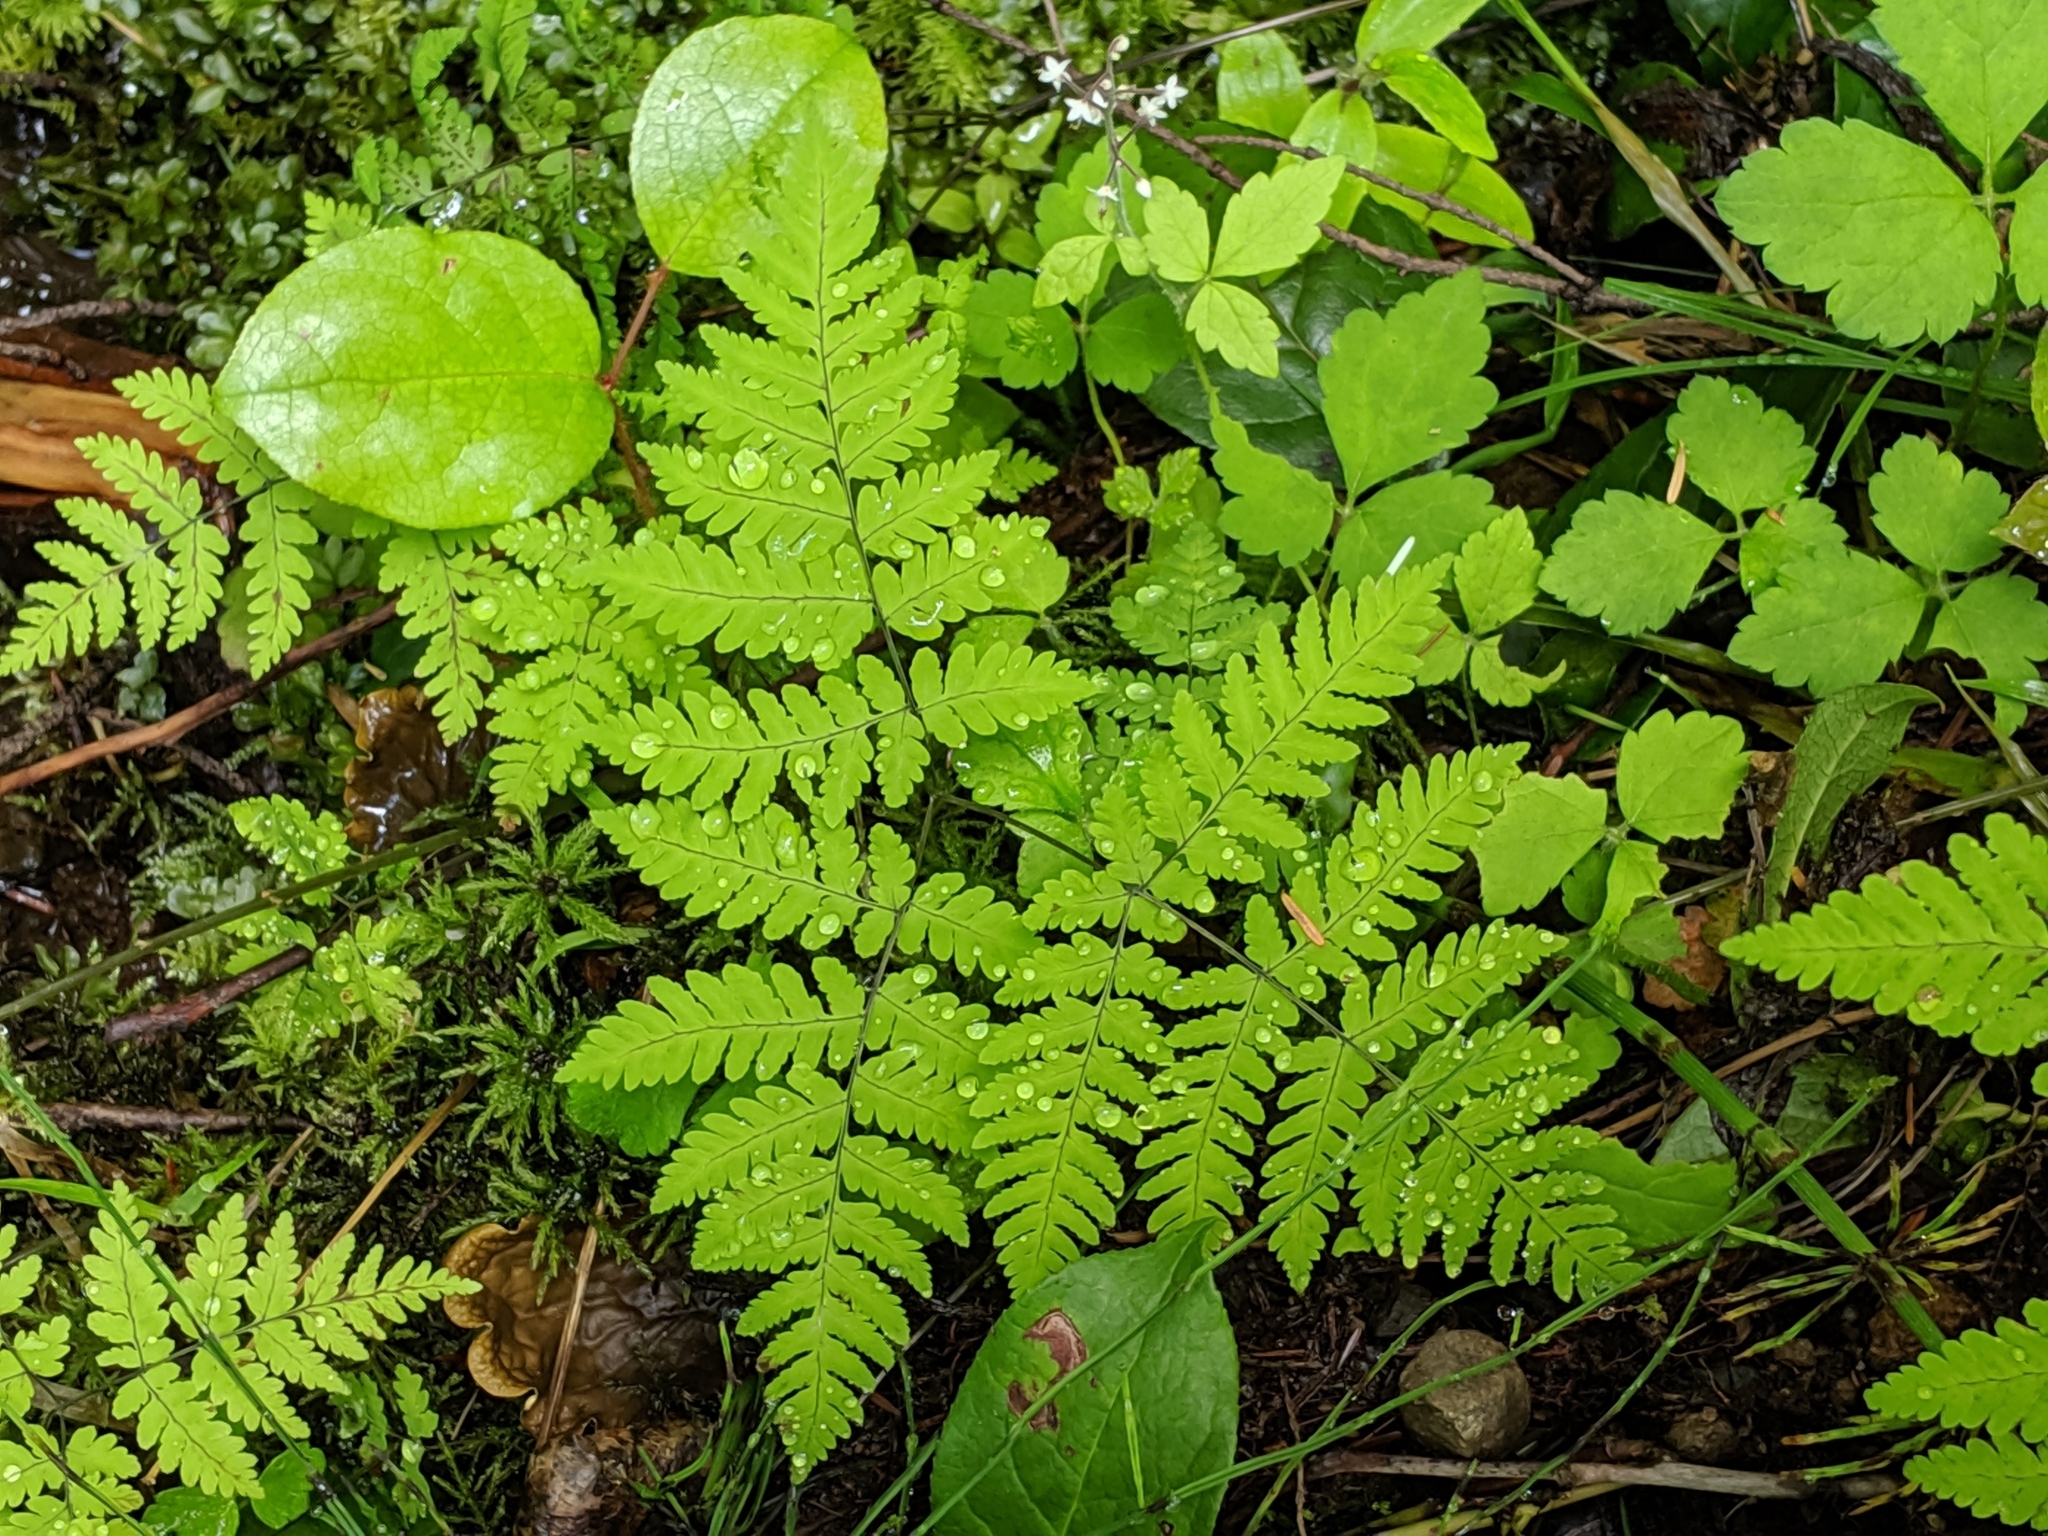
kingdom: Plantae
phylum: Tracheophyta
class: Polypodiopsida
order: Polypodiales
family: Cystopteridaceae
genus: Gymnocarpium
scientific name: Gymnocarpium disjunctum
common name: Western oak fern
